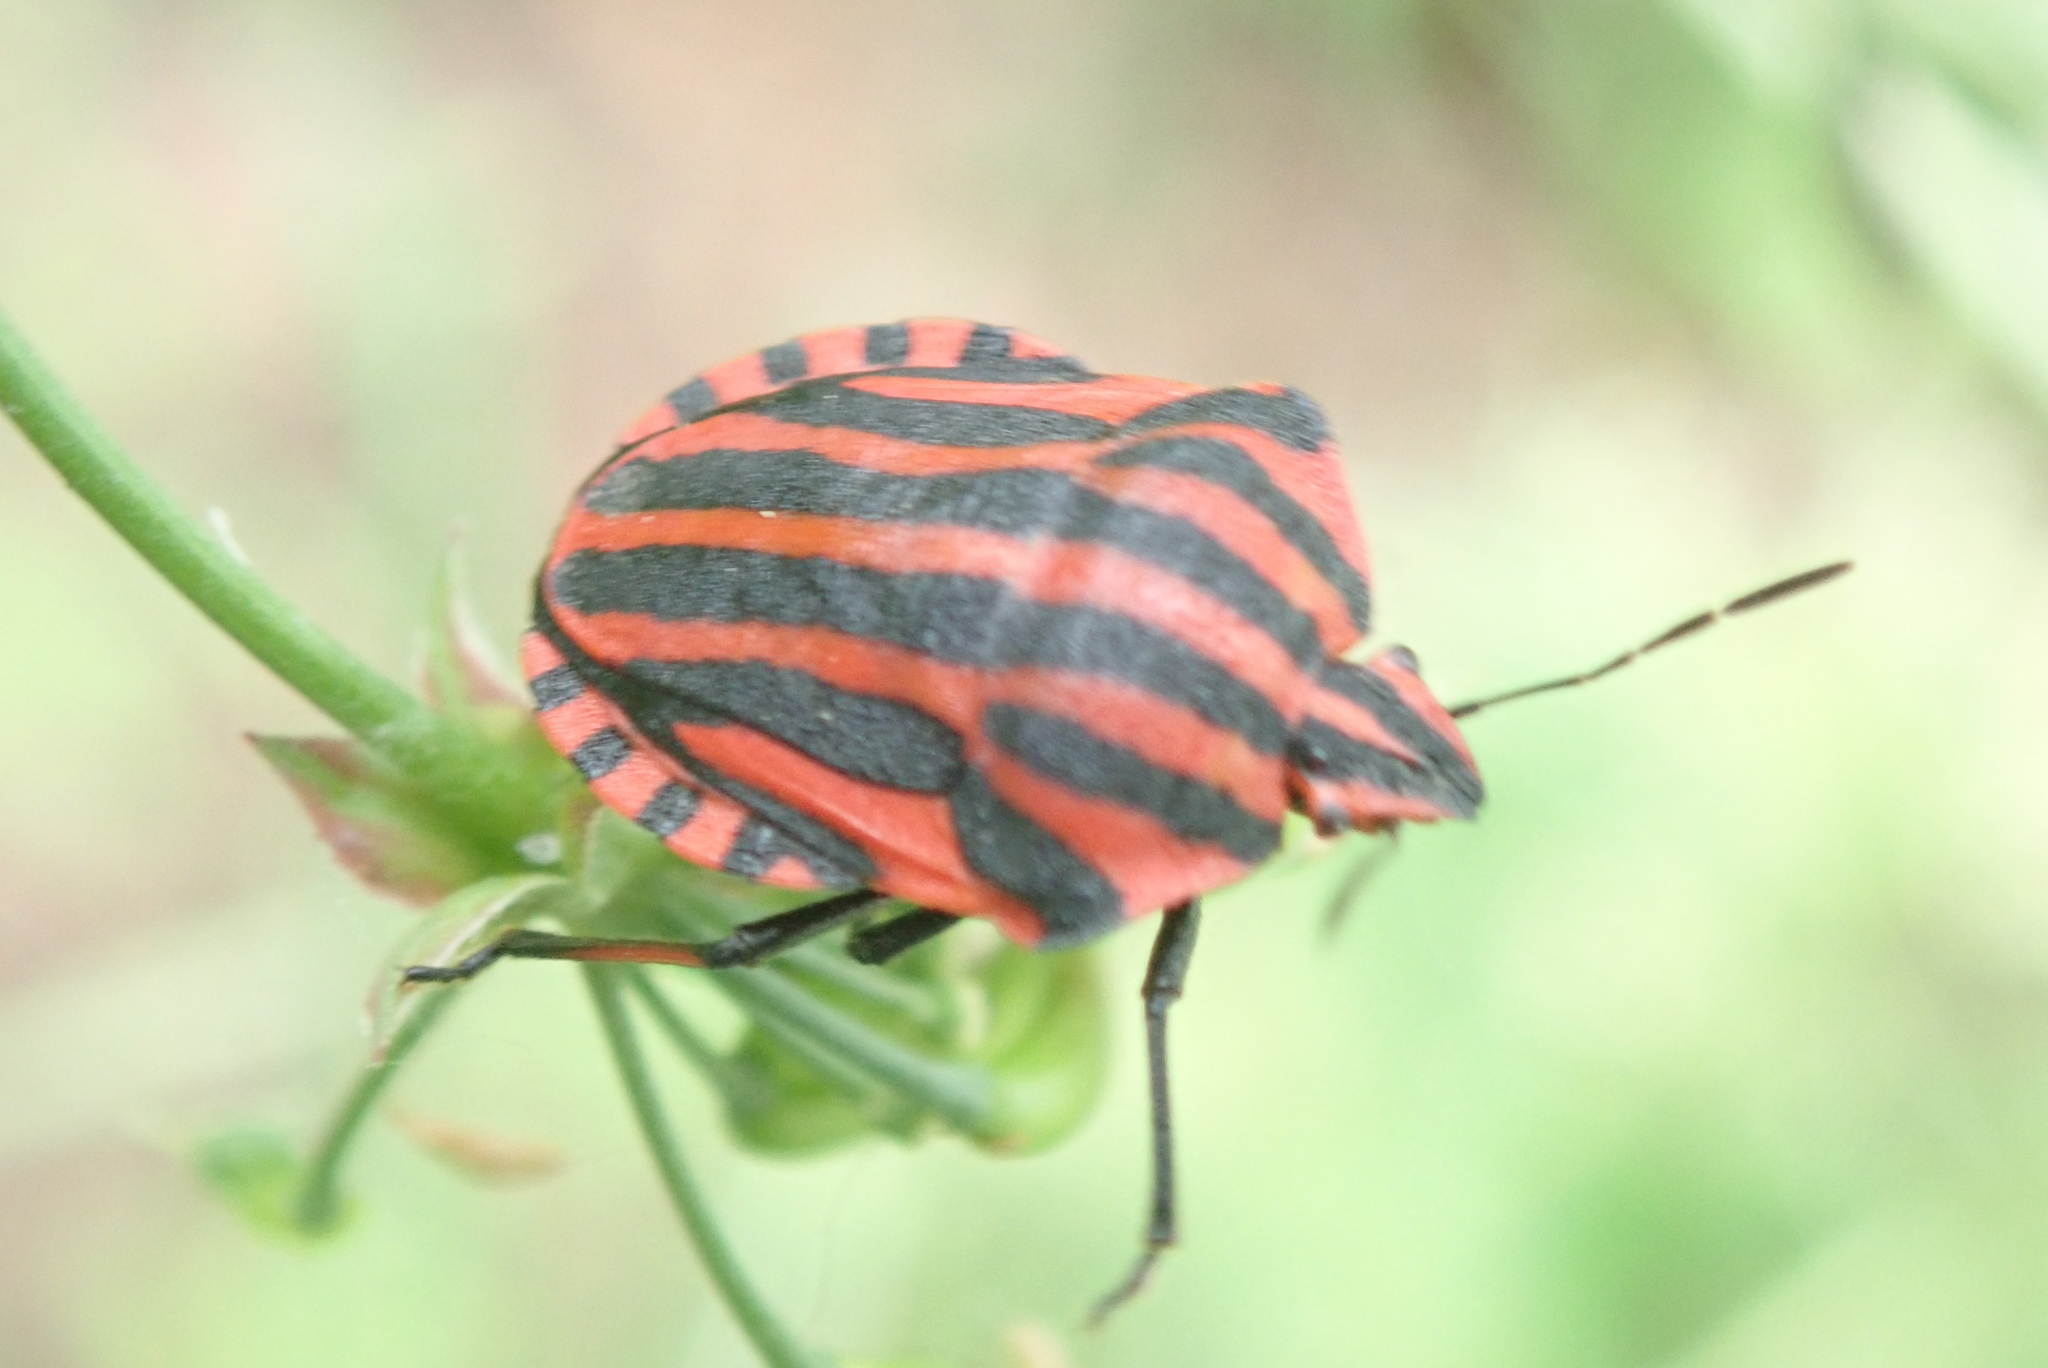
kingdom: Animalia
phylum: Arthropoda
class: Insecta
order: Hemiptera
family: Pentatomidae
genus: Graphosoma
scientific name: Graphosoma italicum
